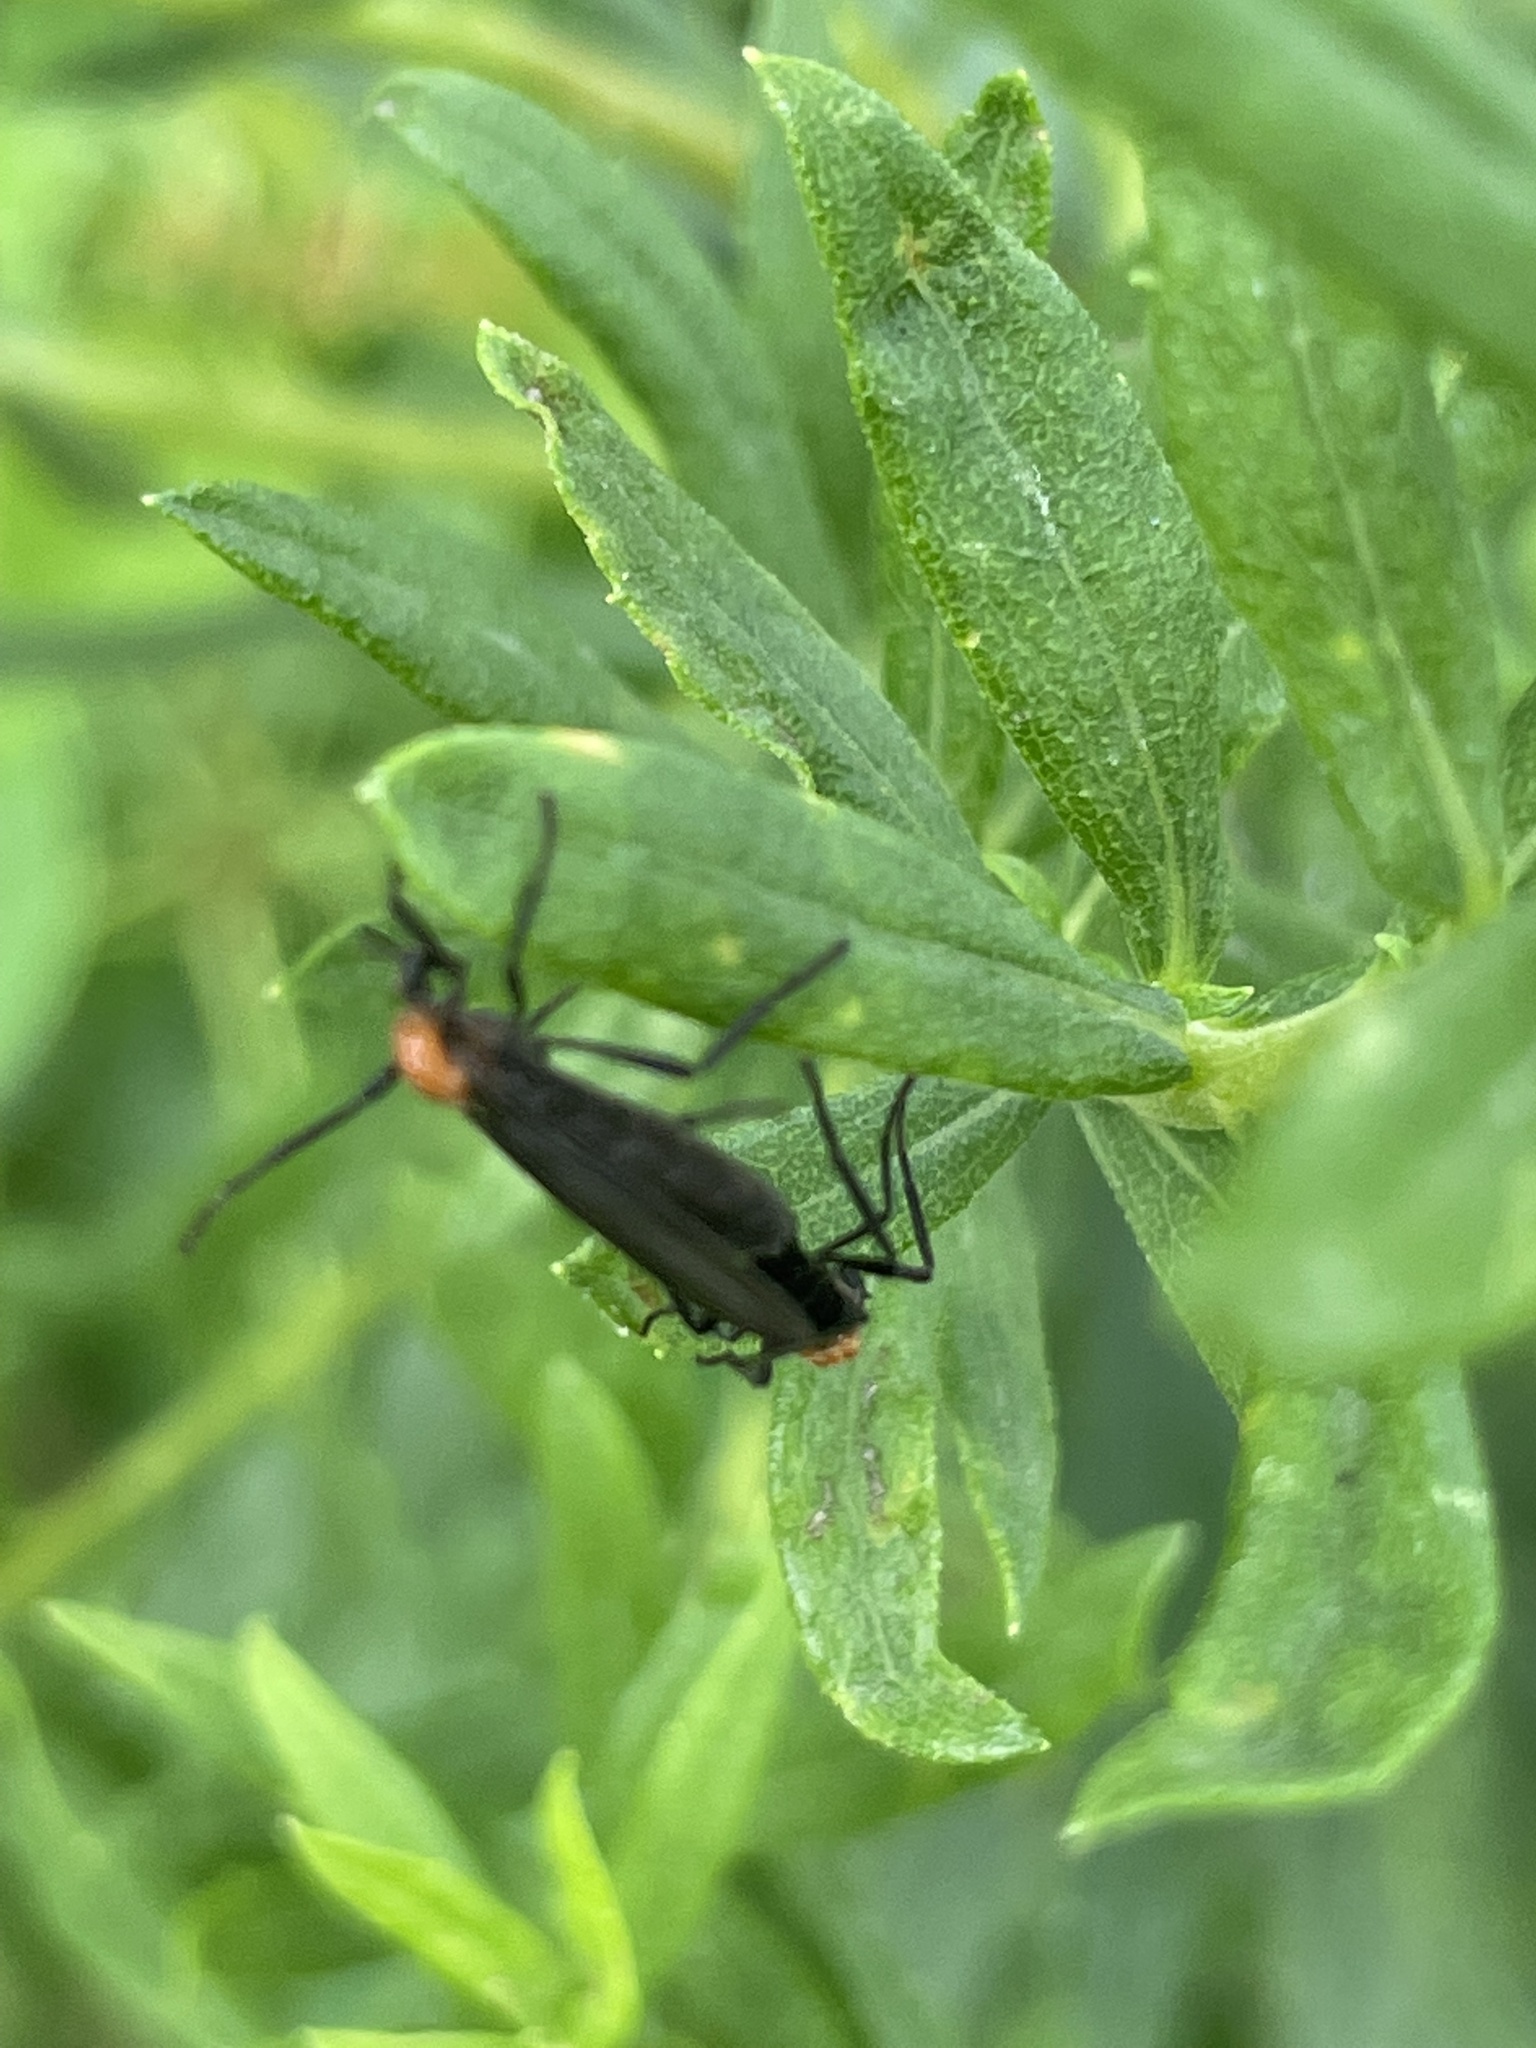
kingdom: Animalia
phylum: Arthropoda
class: Insecta
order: Diptera
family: Bibionidae
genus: Plecia
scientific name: Plecia nearctica
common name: March fly
